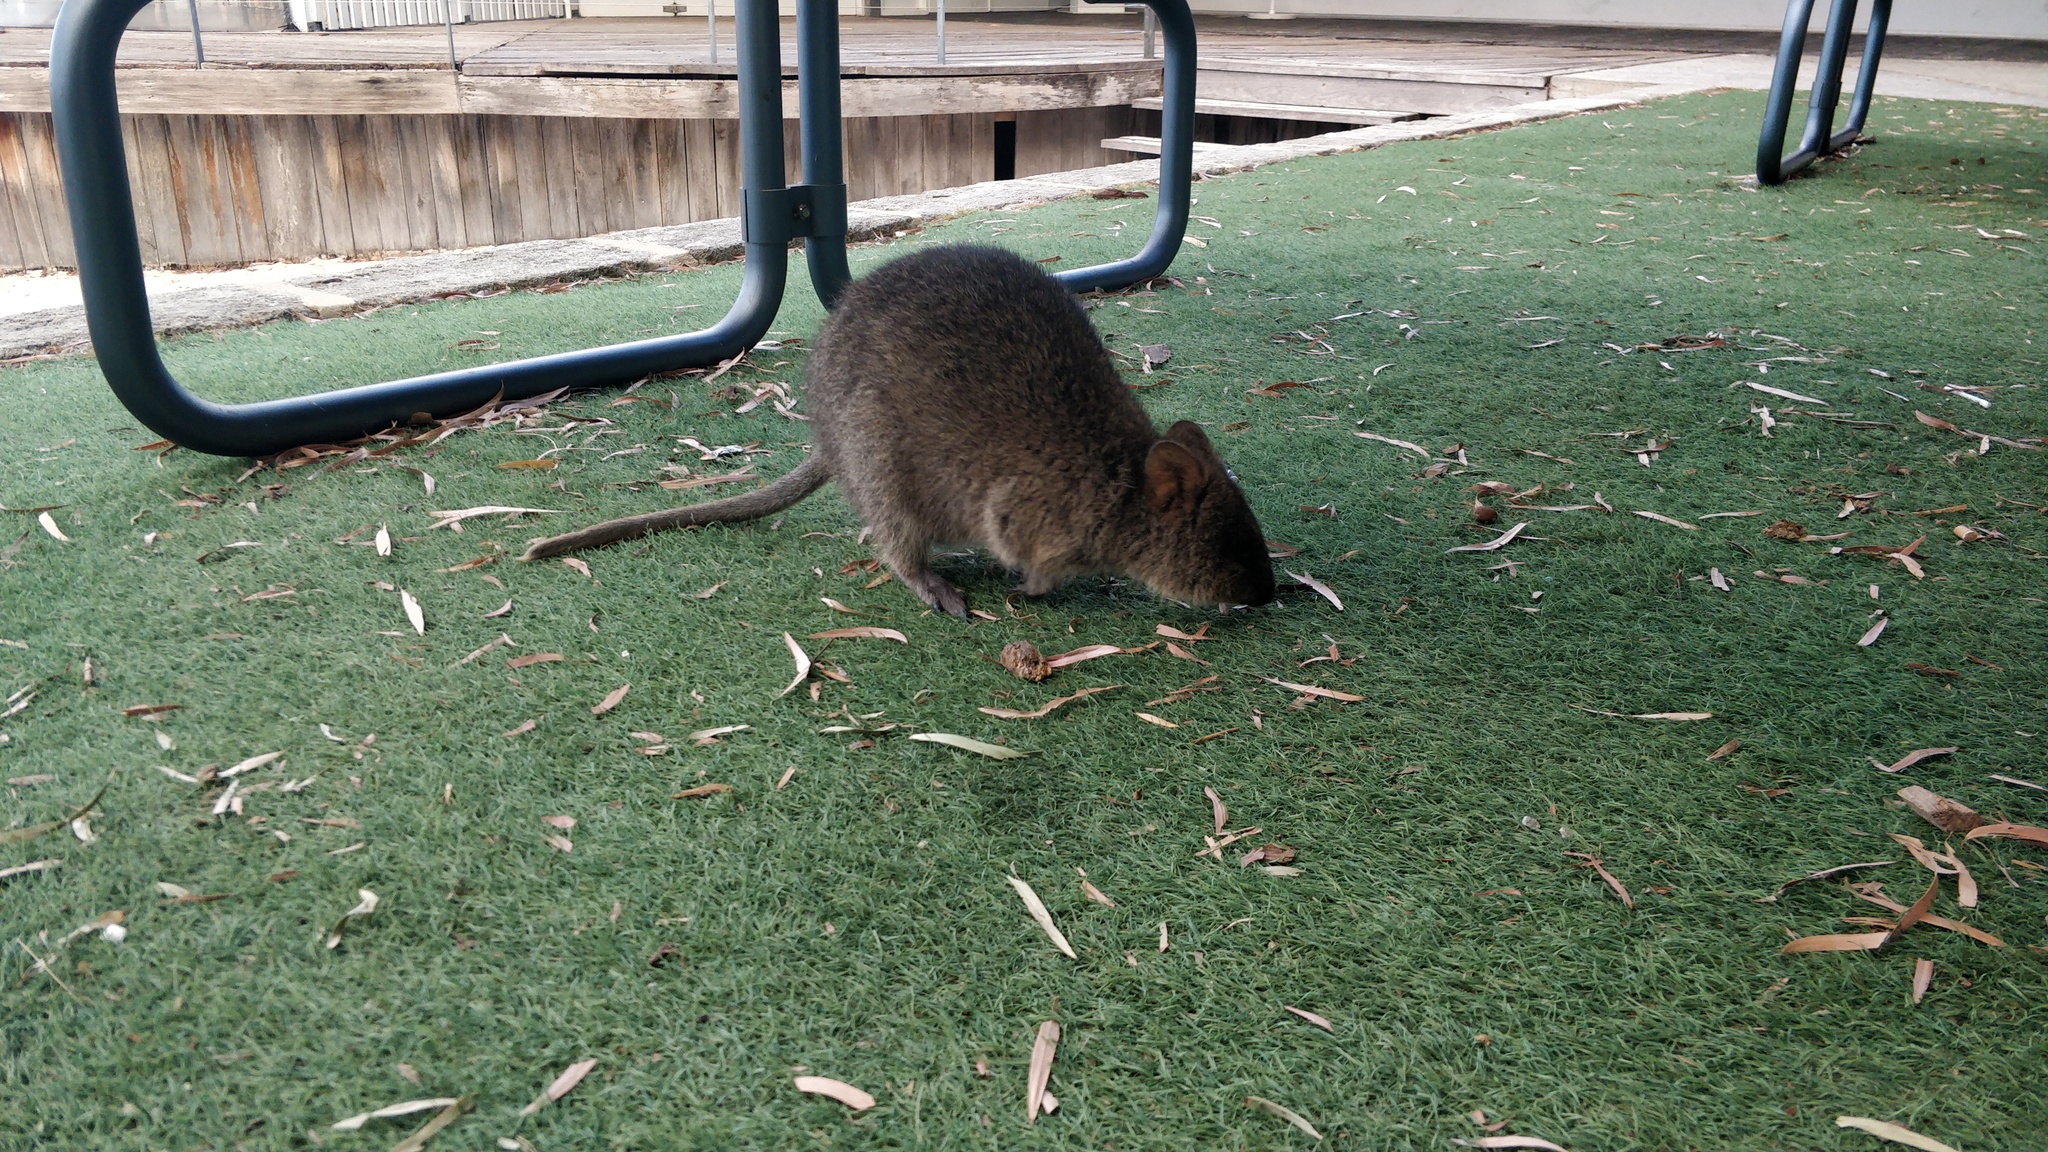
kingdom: Animalia
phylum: Chordata
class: Mammalia
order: Diprotodontia
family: Macropodidae
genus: Setonix
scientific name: Setonix brachyurus
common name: Quokka
